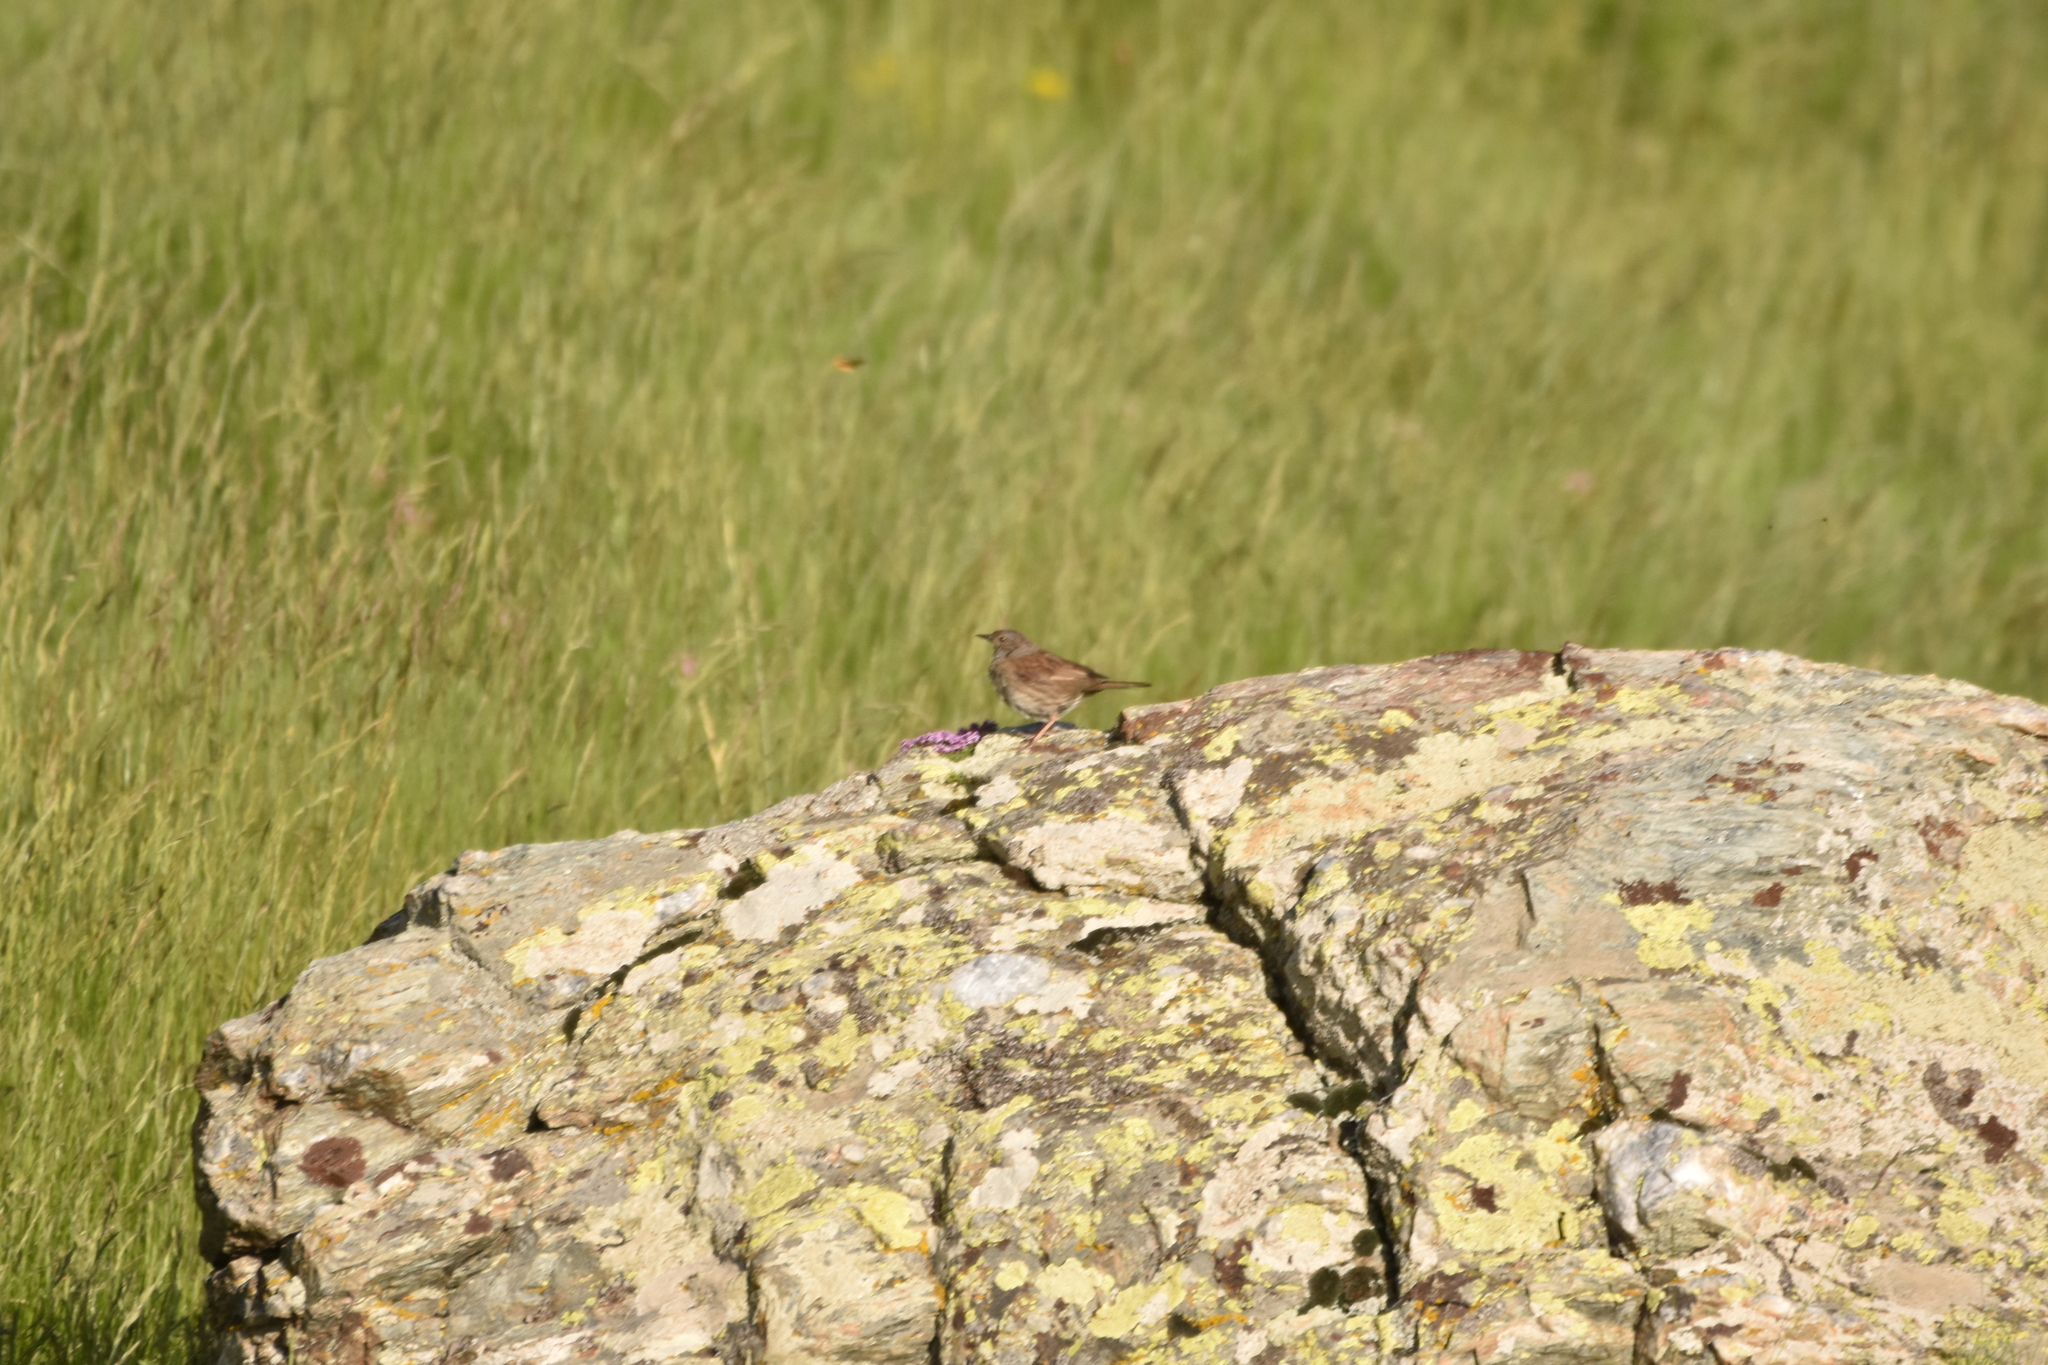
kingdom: Animalia
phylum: Chordata
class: Aves
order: Passeriformes
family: Prunellidae
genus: Prunella
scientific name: Prunella modularis
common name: Dunnock
